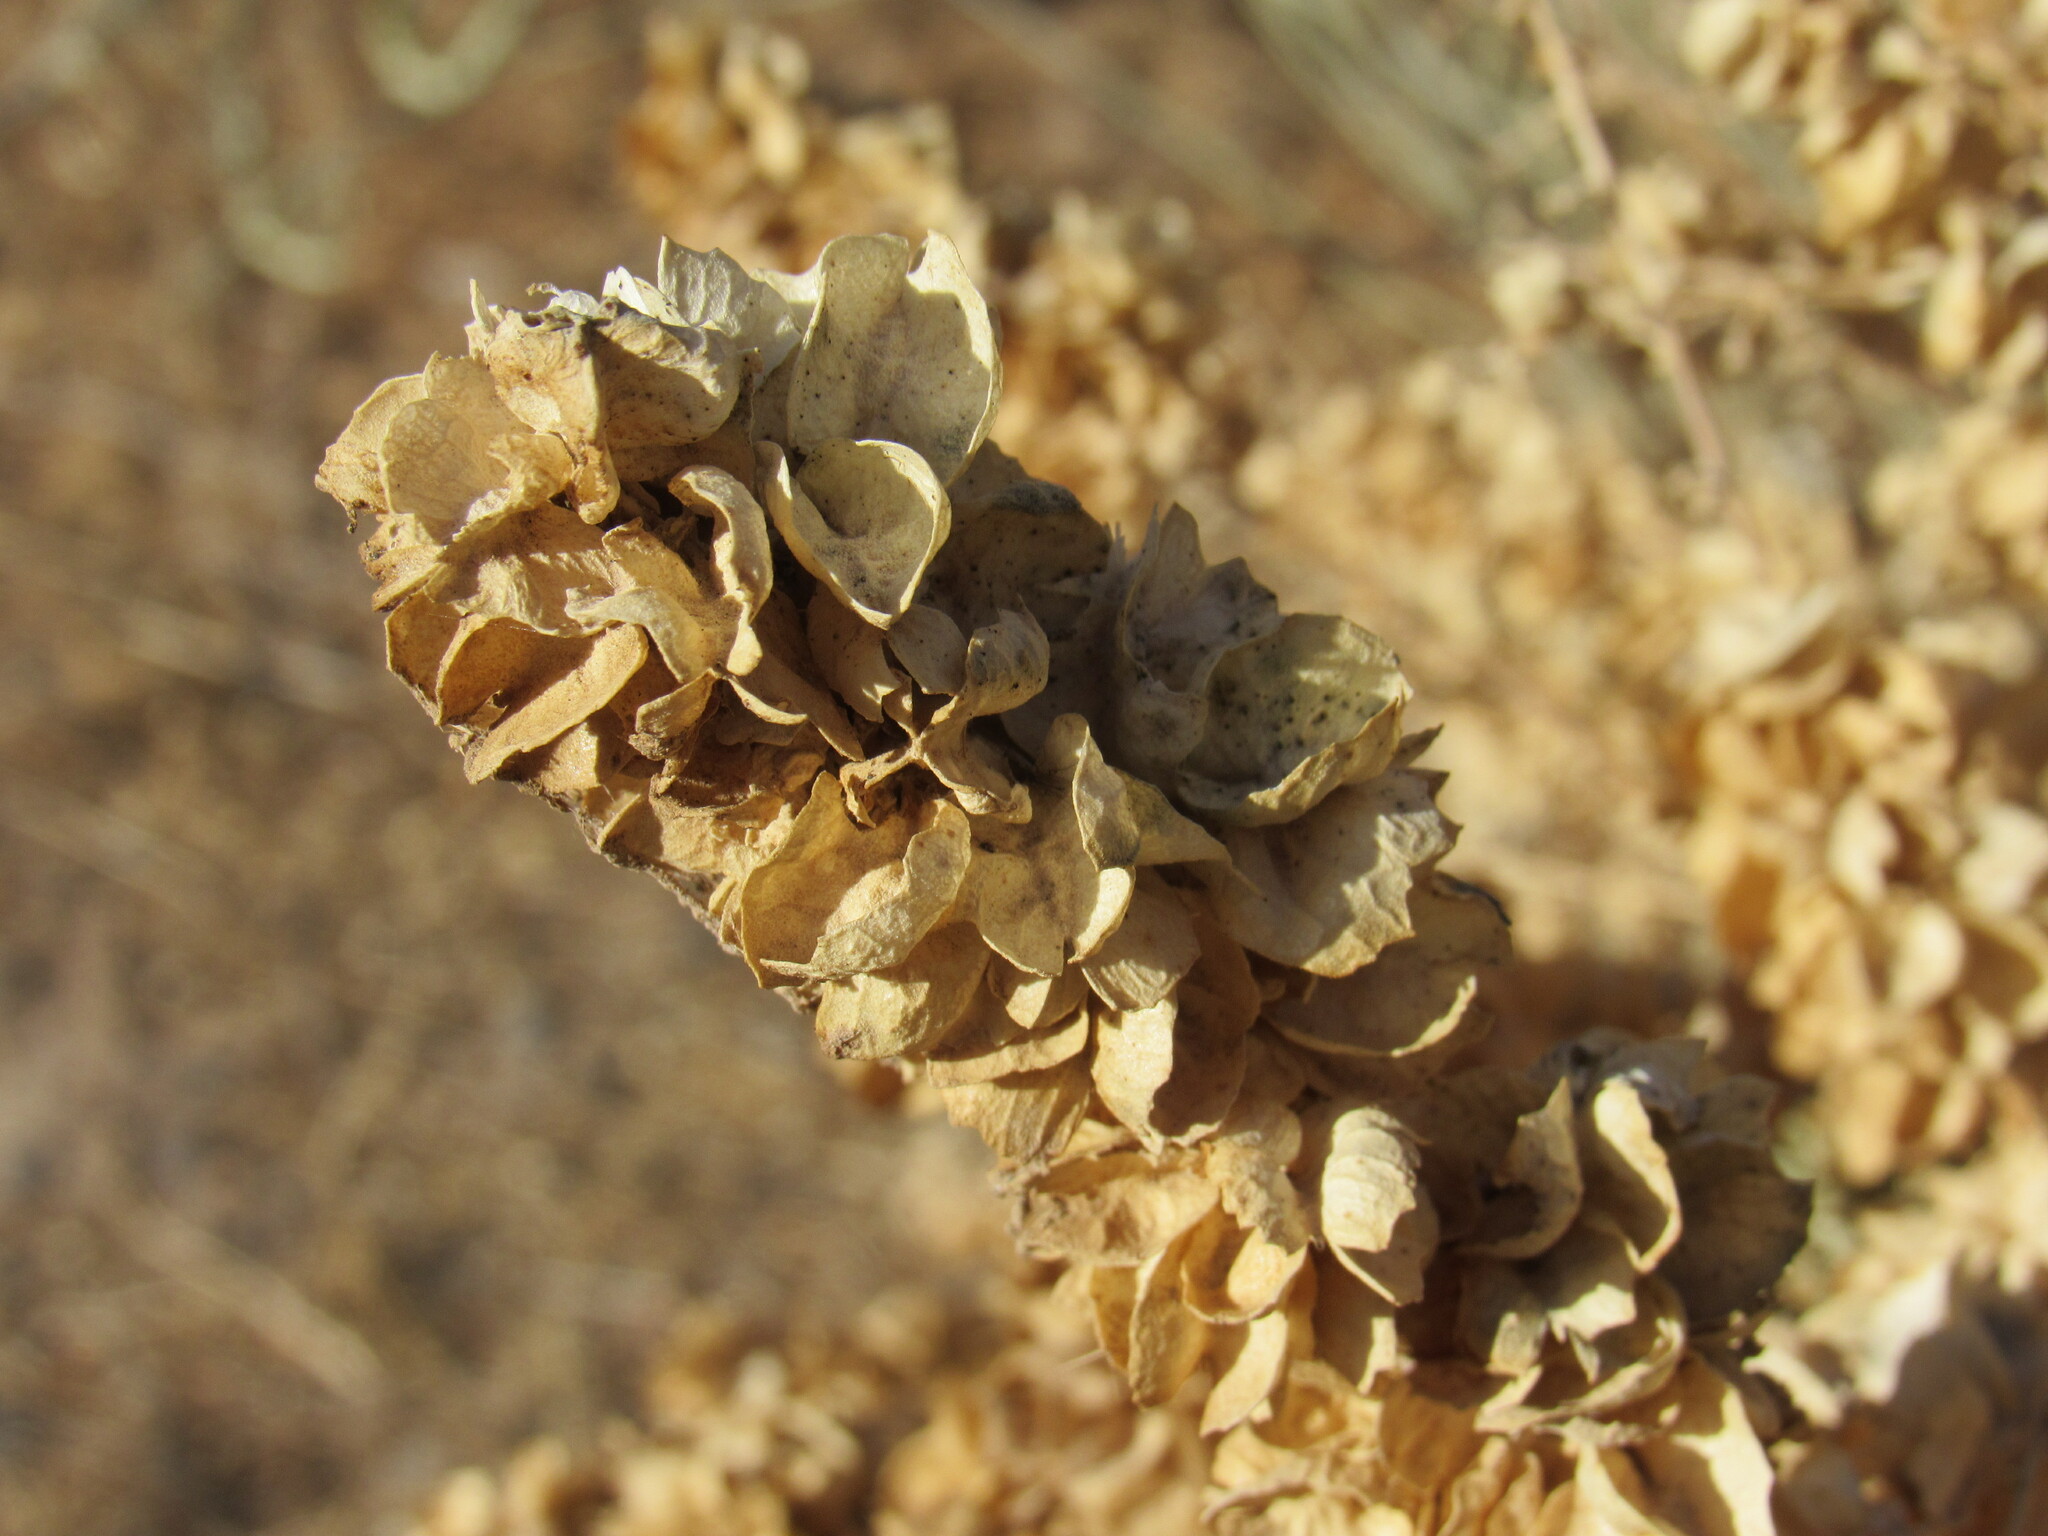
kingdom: Plantae
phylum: Tracheophyta
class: Magnoliopsida
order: Caryophyllales
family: Amaranthaceae
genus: Atriplex
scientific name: Atriplex canescens
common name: Four-wing saltbush
